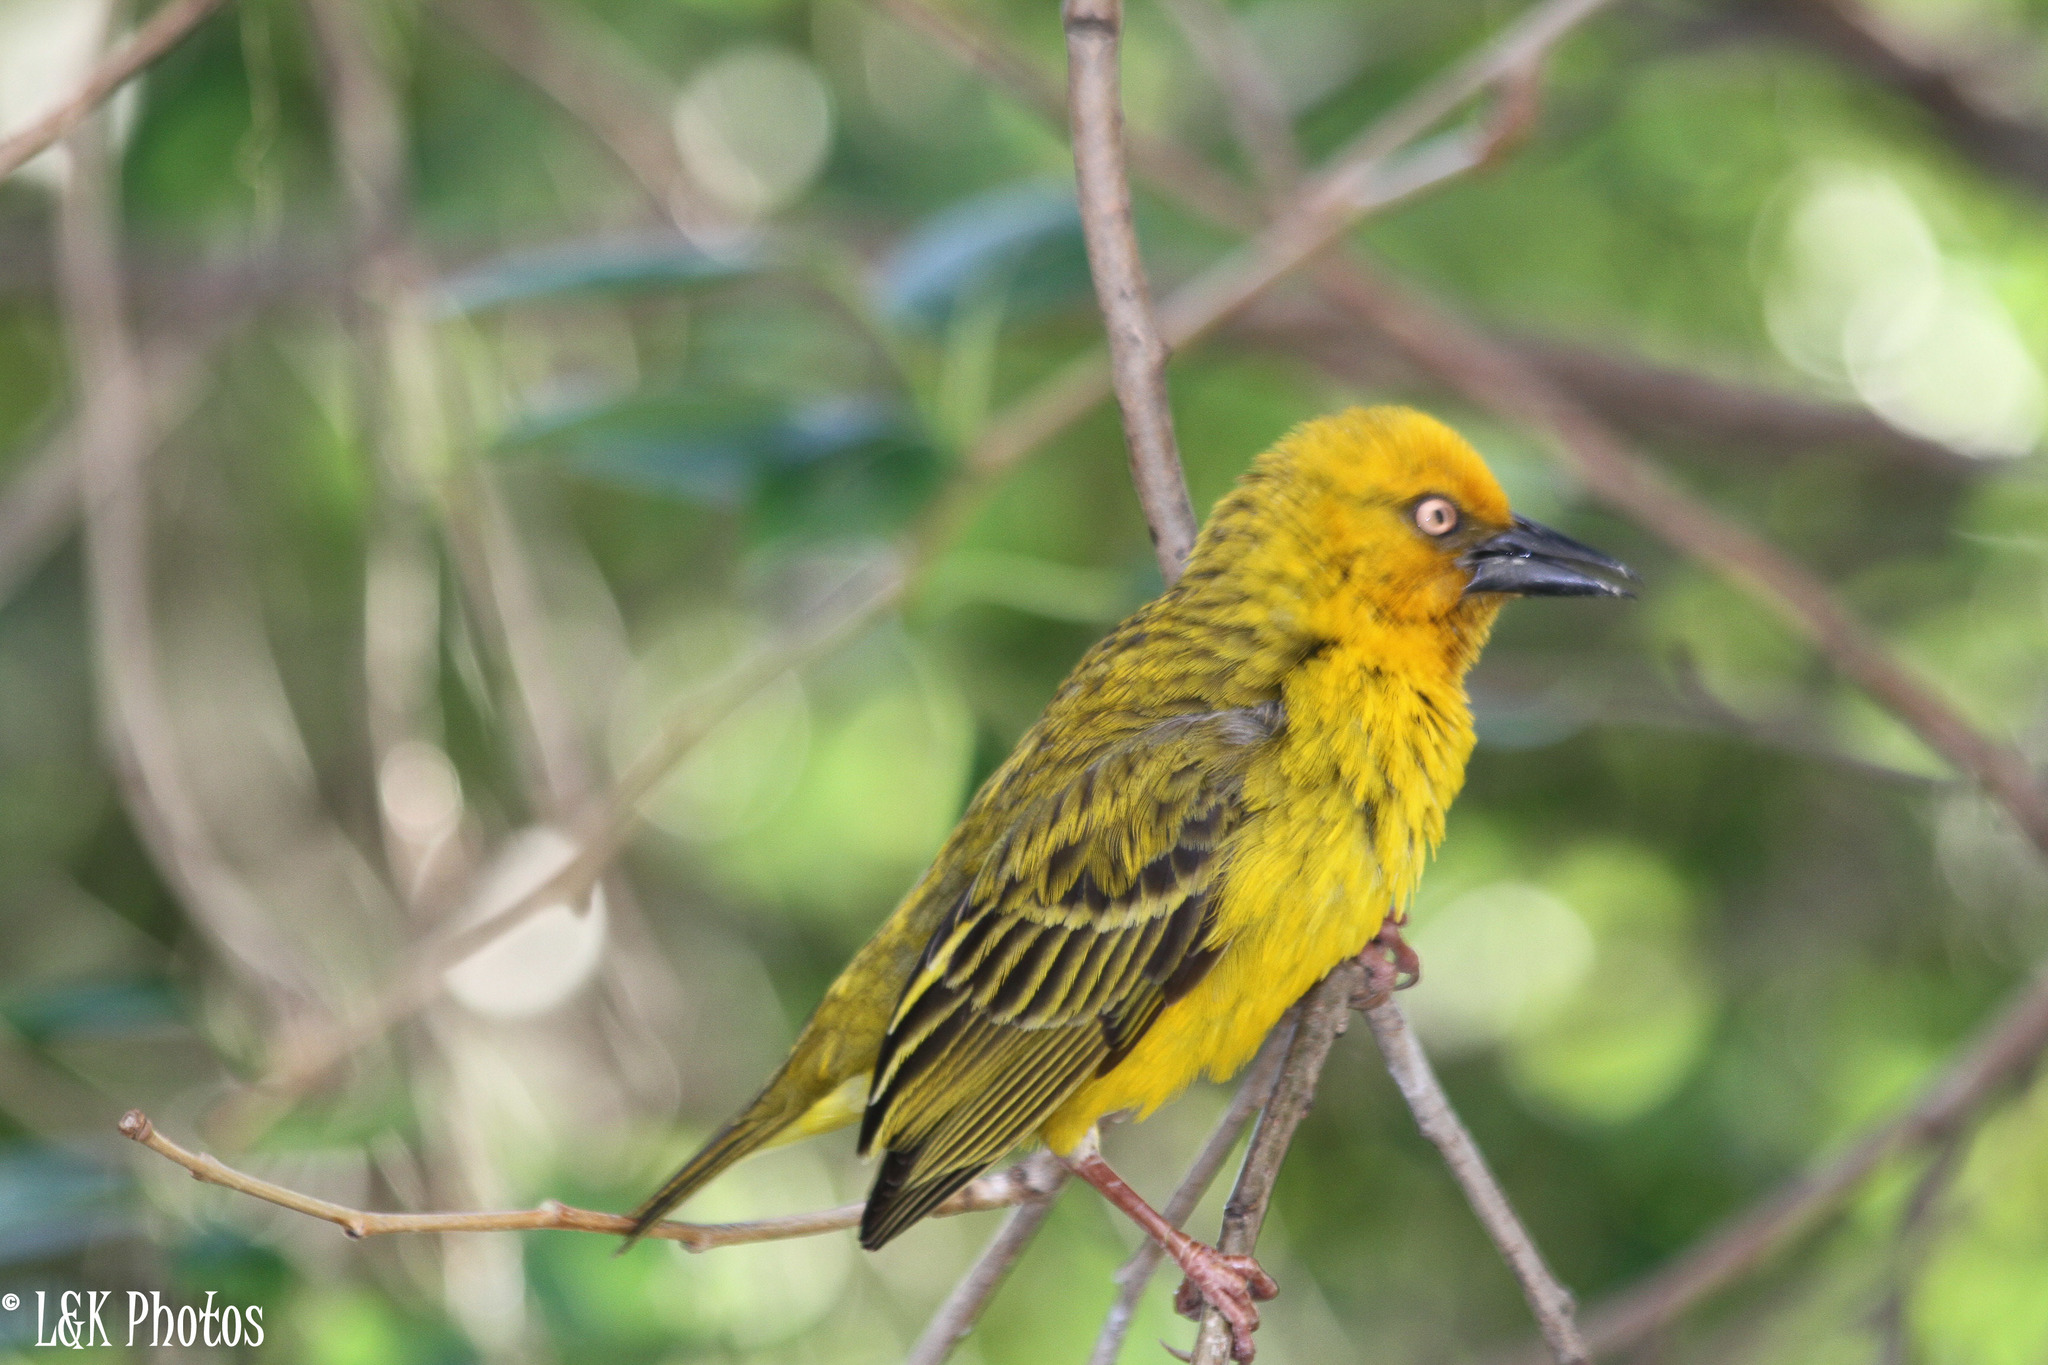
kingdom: Animalia
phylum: Chordata
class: Aves
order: Passeriformes
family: Ploceidae
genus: Ploceus
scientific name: Ploceus capensis
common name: Cape weaver
